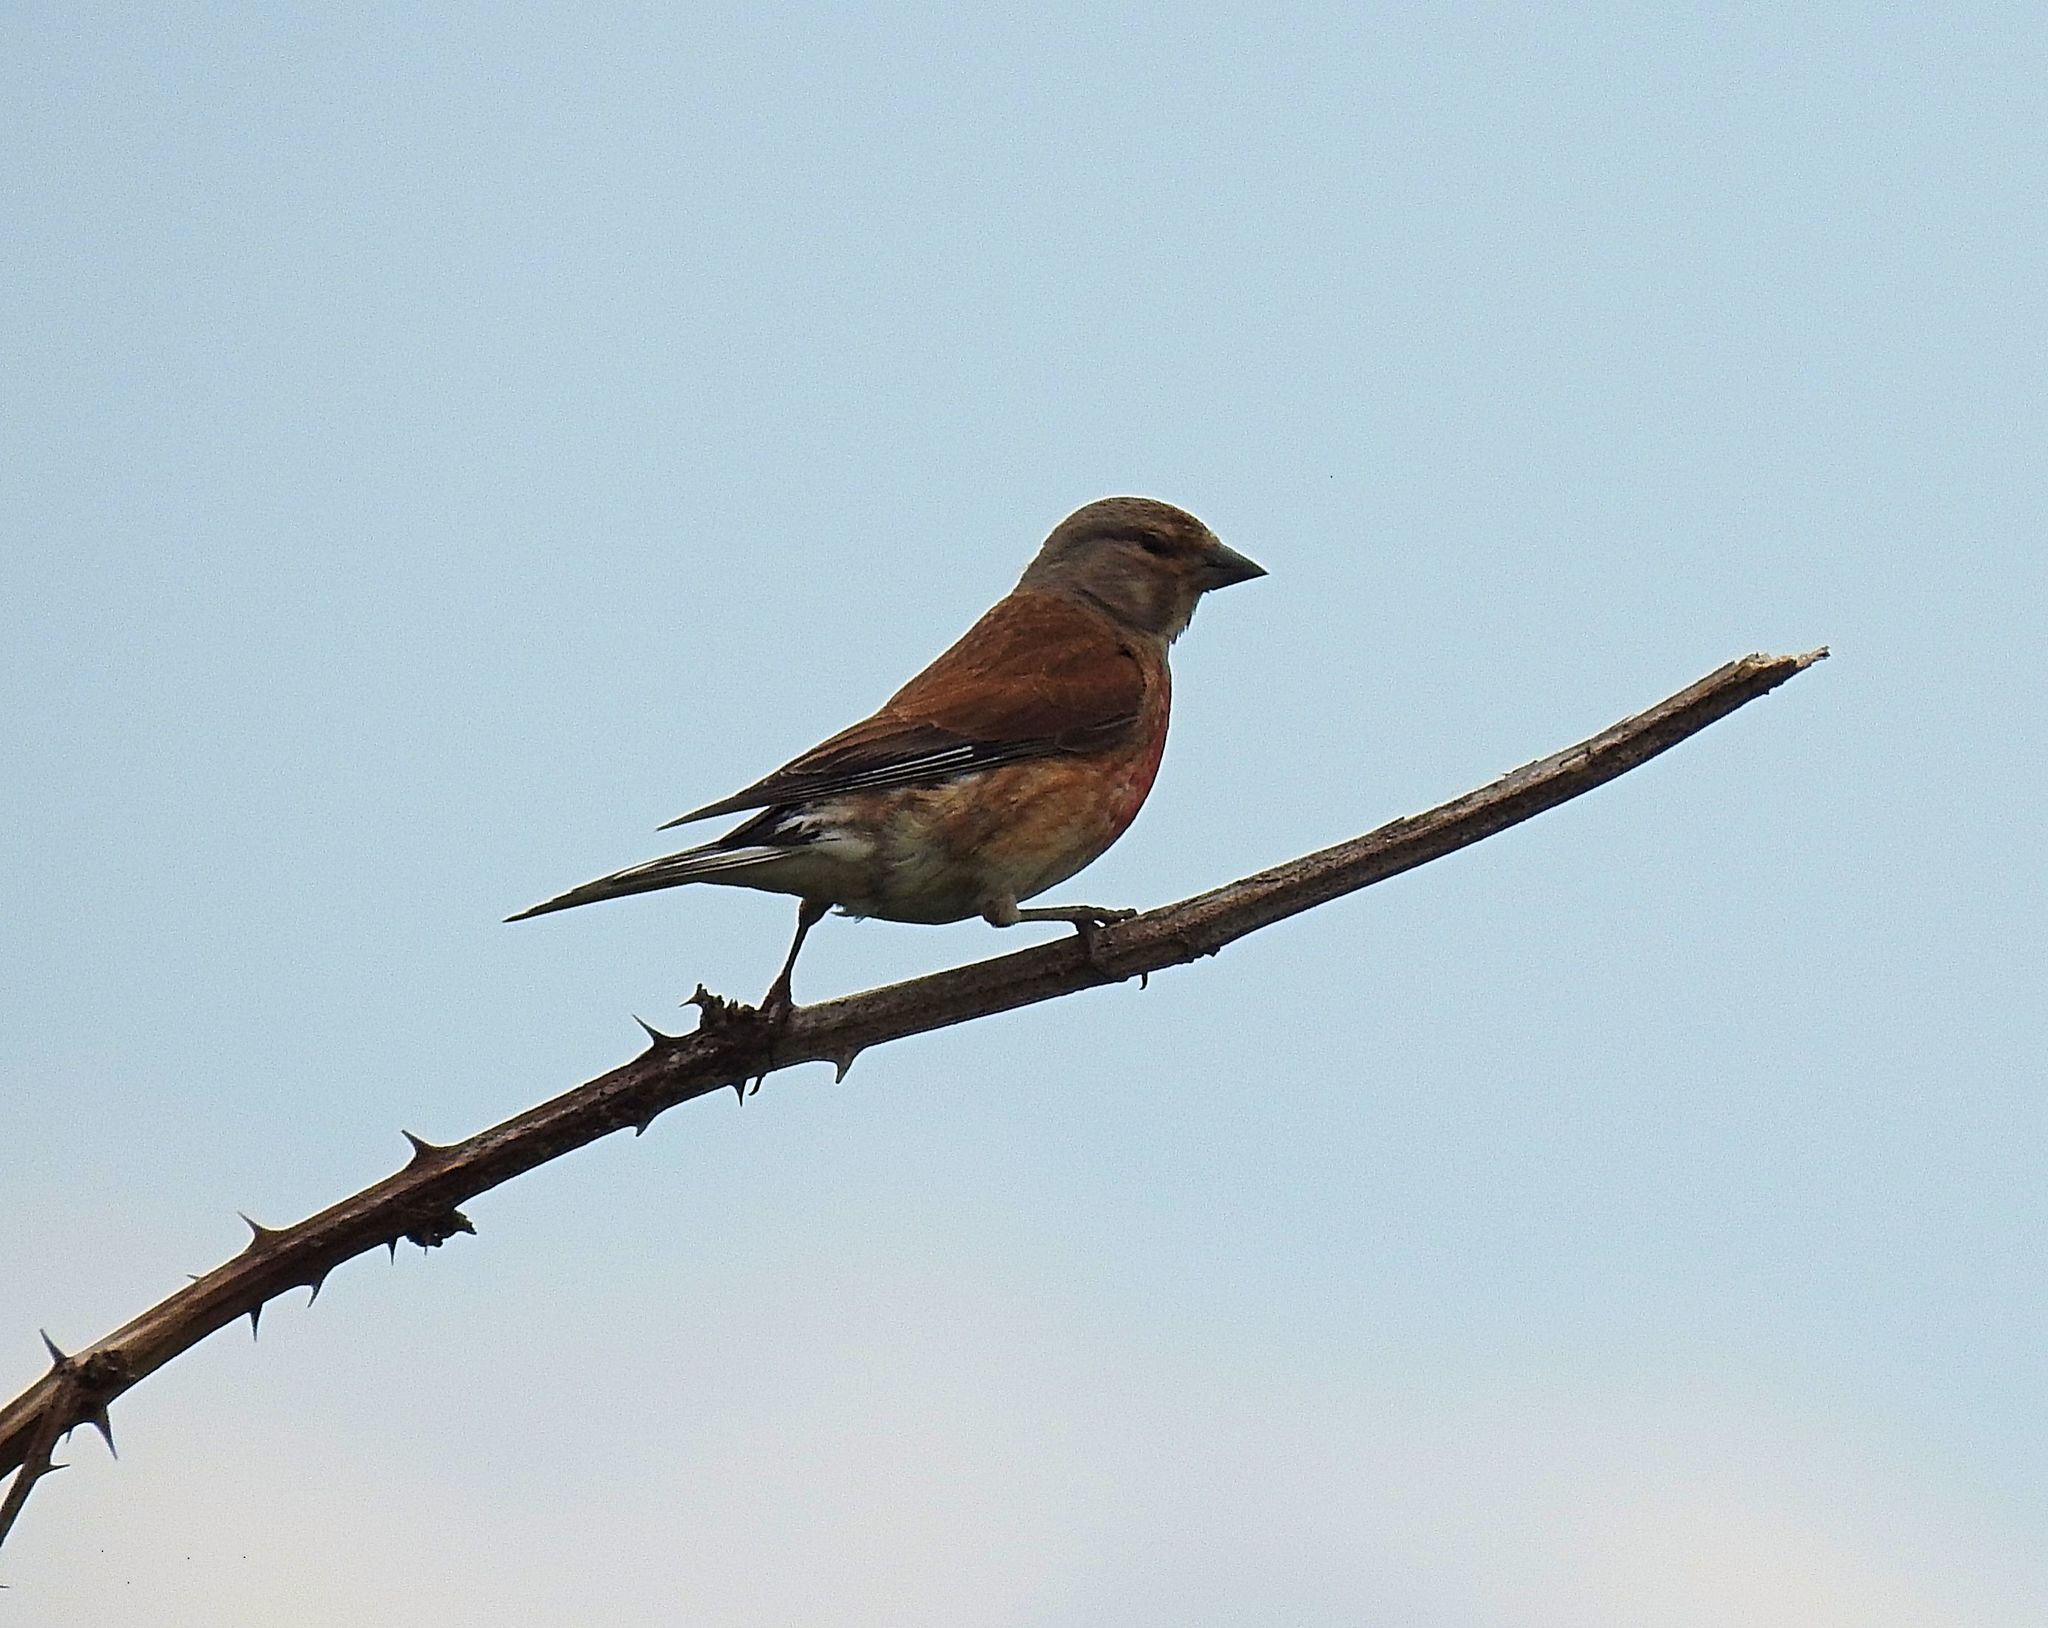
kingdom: Animalia
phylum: Chordata
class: Aves
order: Passeriformes
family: Fringillidae
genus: Linaria
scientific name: Linaria cannabina
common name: Common linnet
